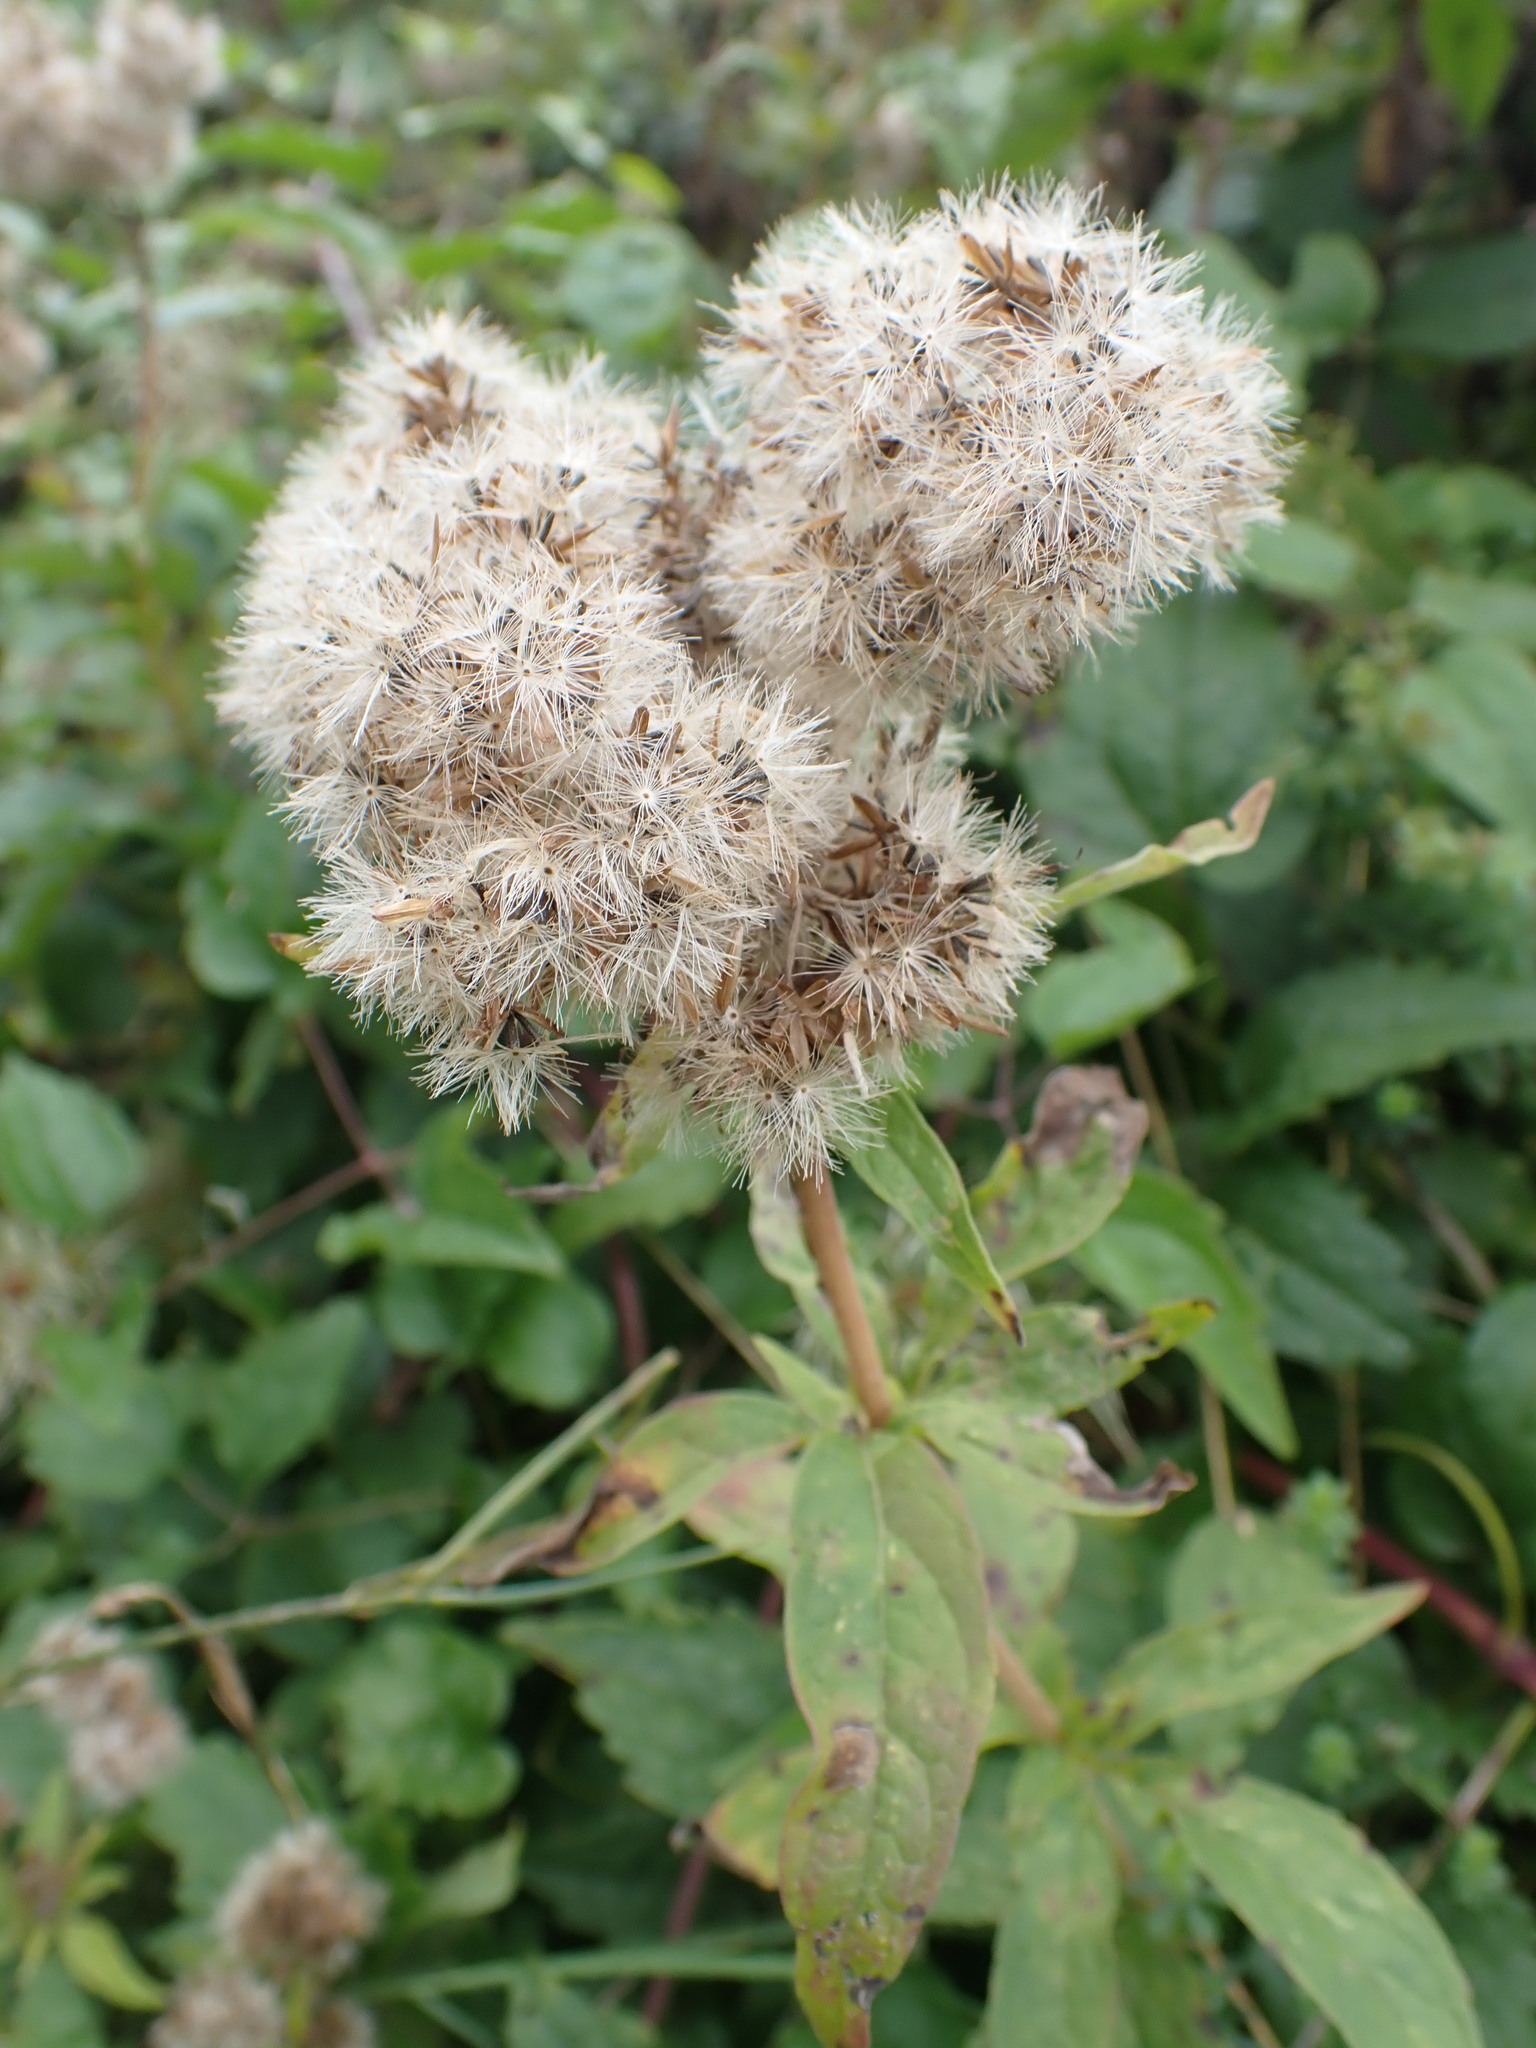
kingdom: Plantae
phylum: Tracheophyta
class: Magnoliopsida
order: Asterales
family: Asteraceae
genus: Eupatorium
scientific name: Eupatorium cannabinum
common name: Hemp-agrimony
